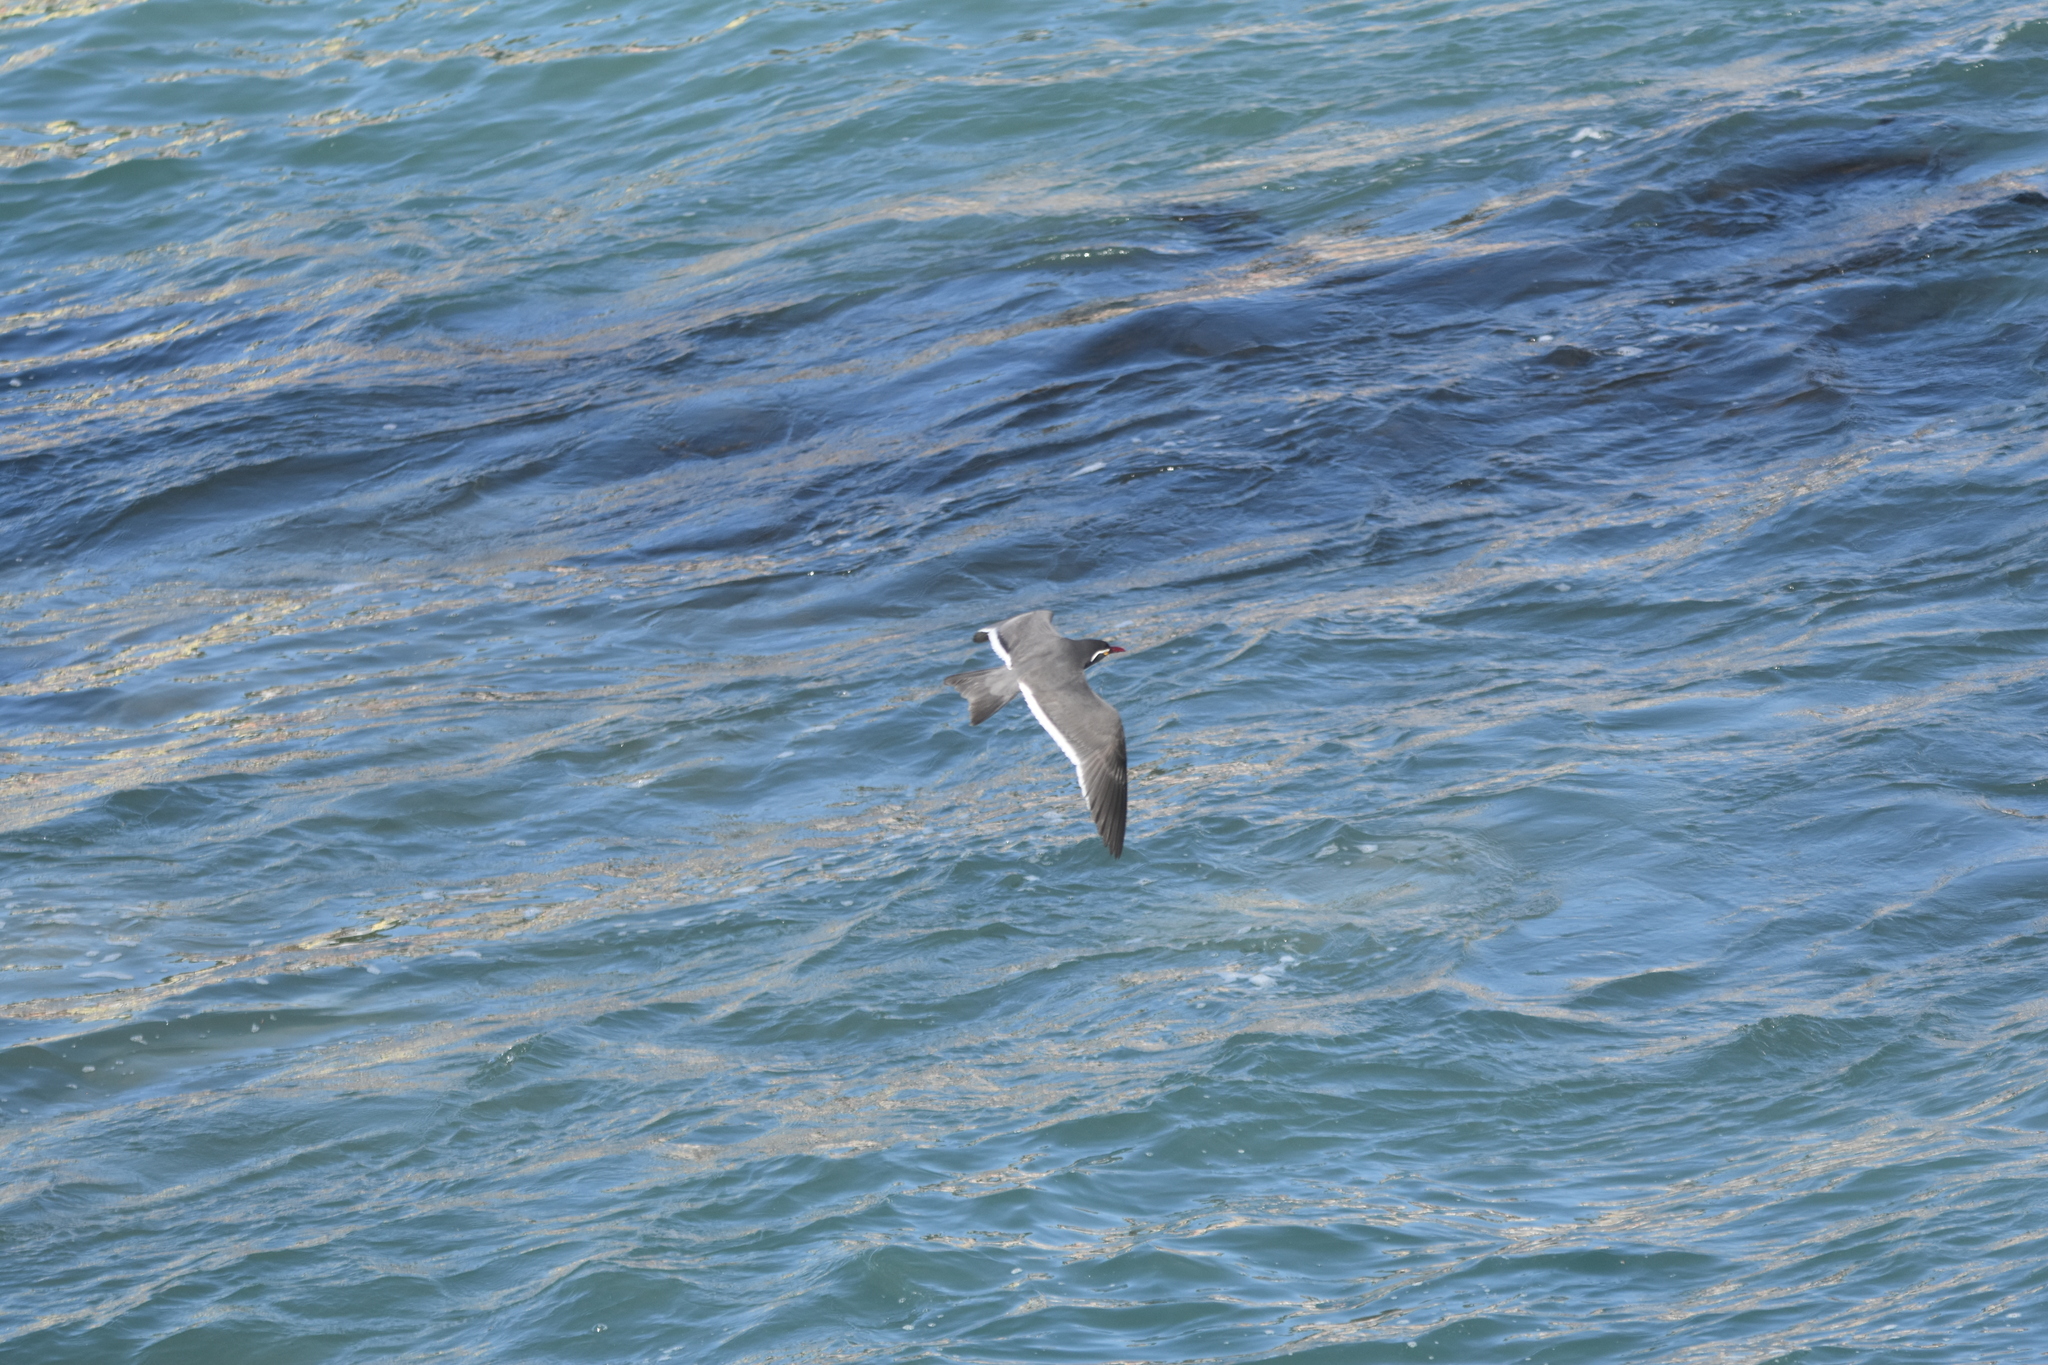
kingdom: Animalia
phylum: Chordata
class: Aves
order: Charadriiformes
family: Laridae
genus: Larosterna
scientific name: Larosterna inca
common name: Inca tern
